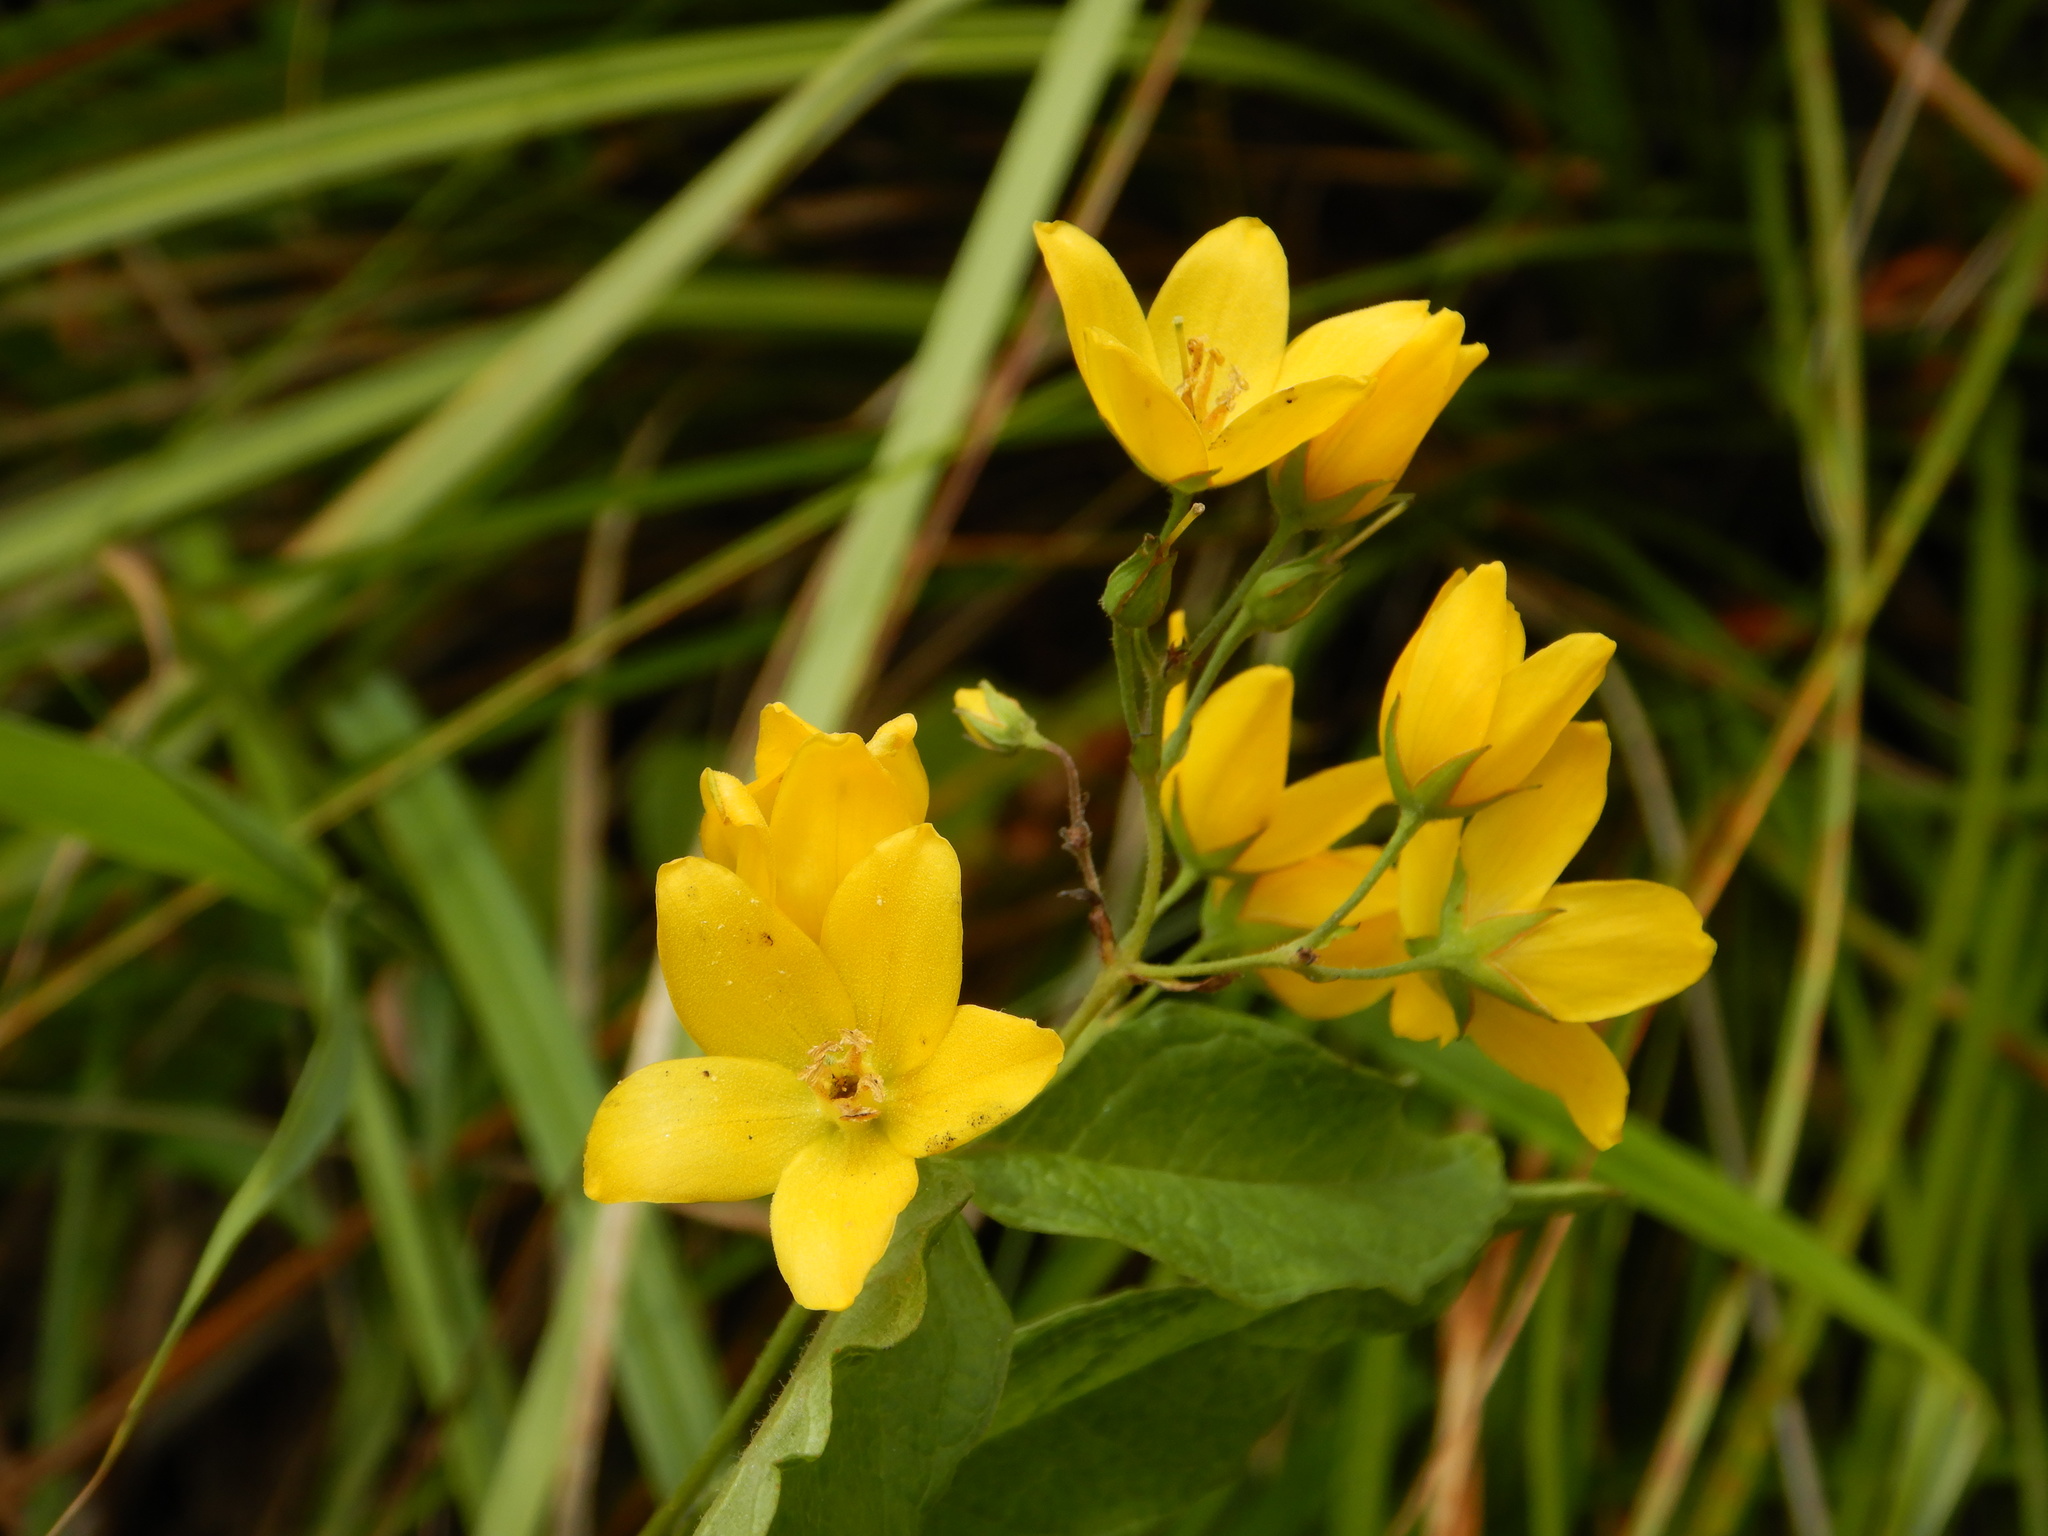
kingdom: Plantae
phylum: Tracheophyta
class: Magnoliopsida
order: Ericales
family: Primulaceae
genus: Lysimachia
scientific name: Lysimachia vulgaris
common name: Yellow loosestrife
